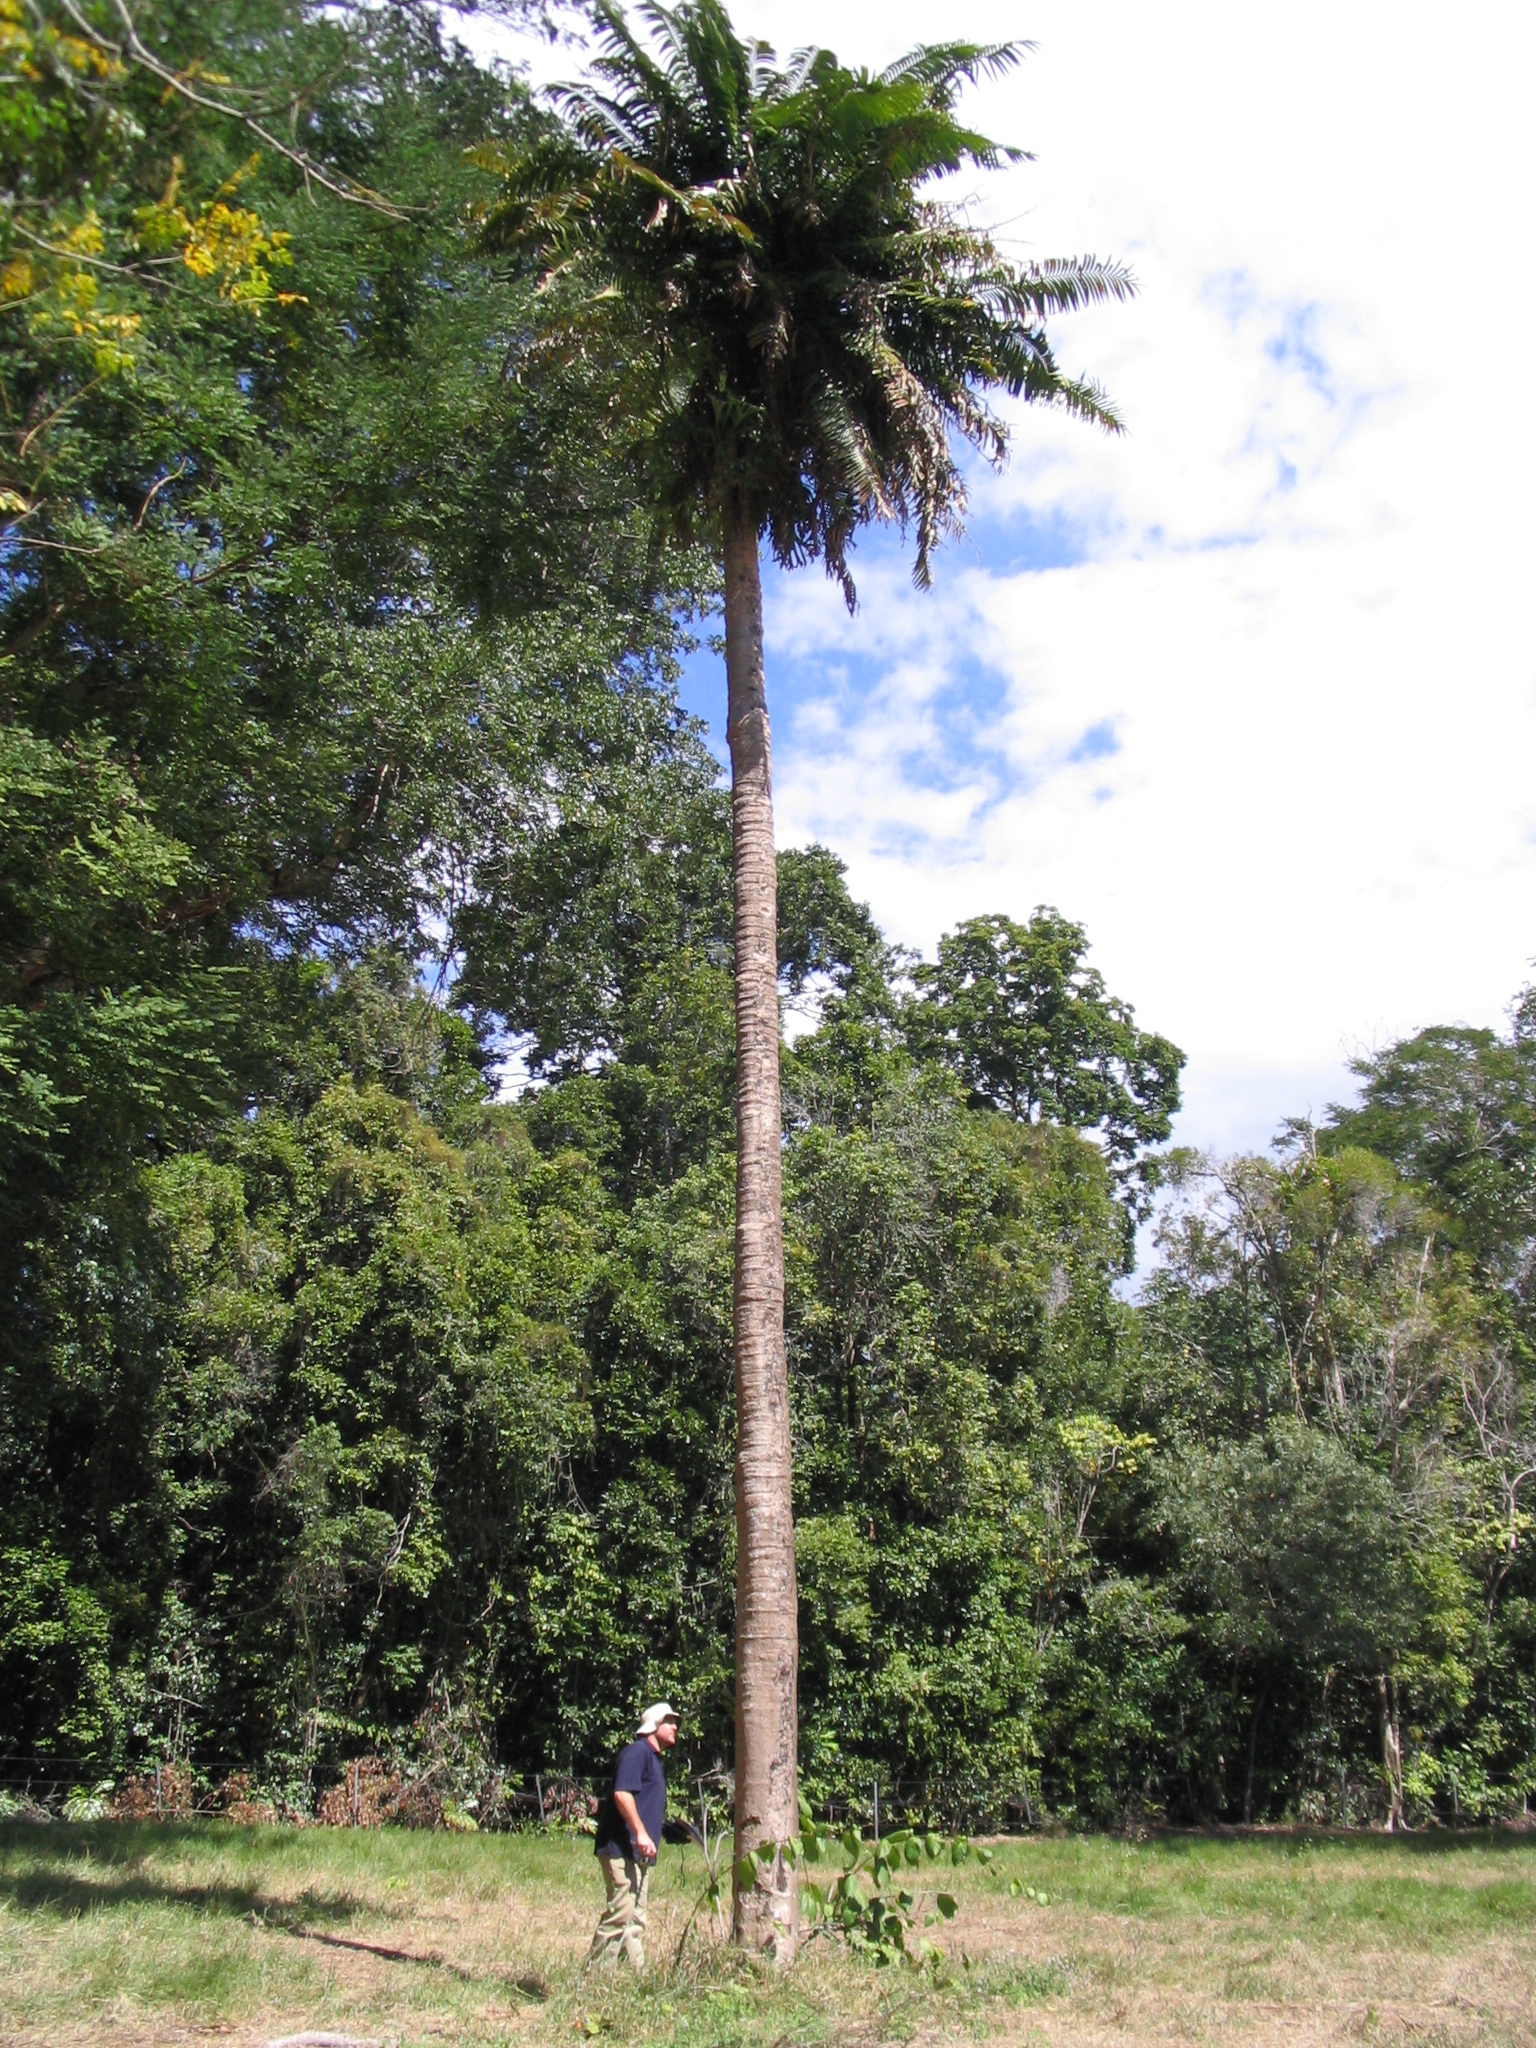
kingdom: Plantae
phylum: Tracheophyta
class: Cycadopsida
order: Cycadales
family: Zamiaceae
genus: Lepidozamia
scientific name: Lepidozamia hopei
